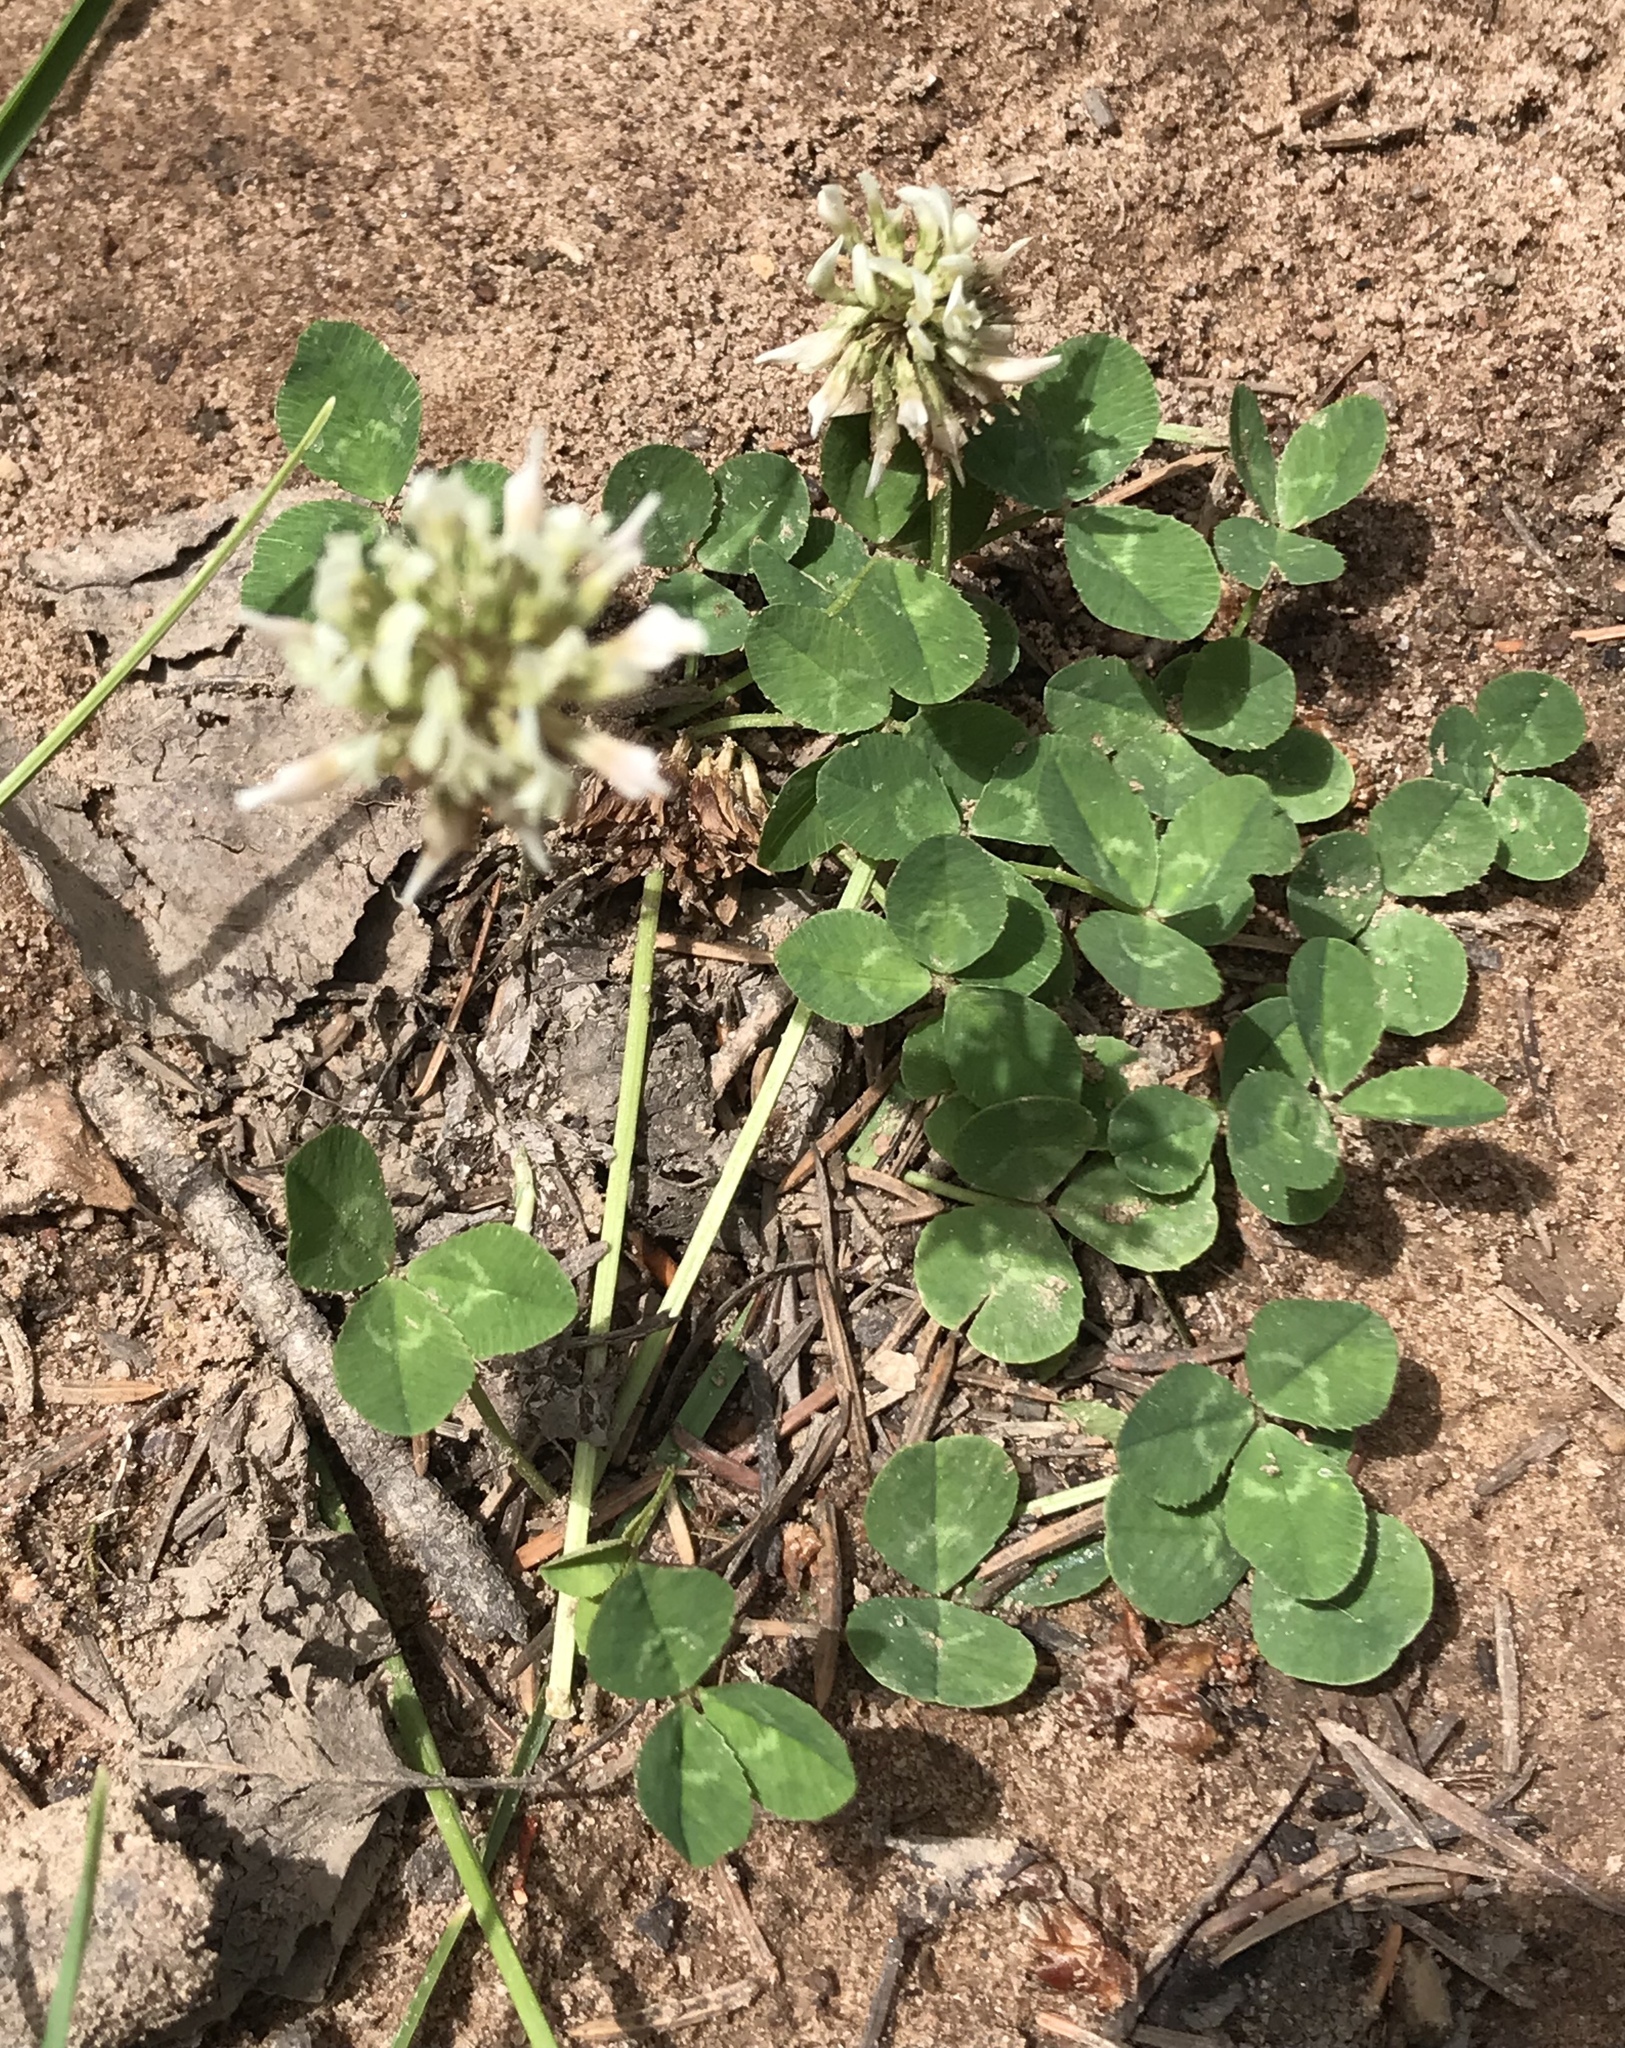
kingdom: Plantae
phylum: Tracheophyta
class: Magnoliopsida
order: Fabales
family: Fabaceae
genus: Trifolium
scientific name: Trifolium repens
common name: White clover
